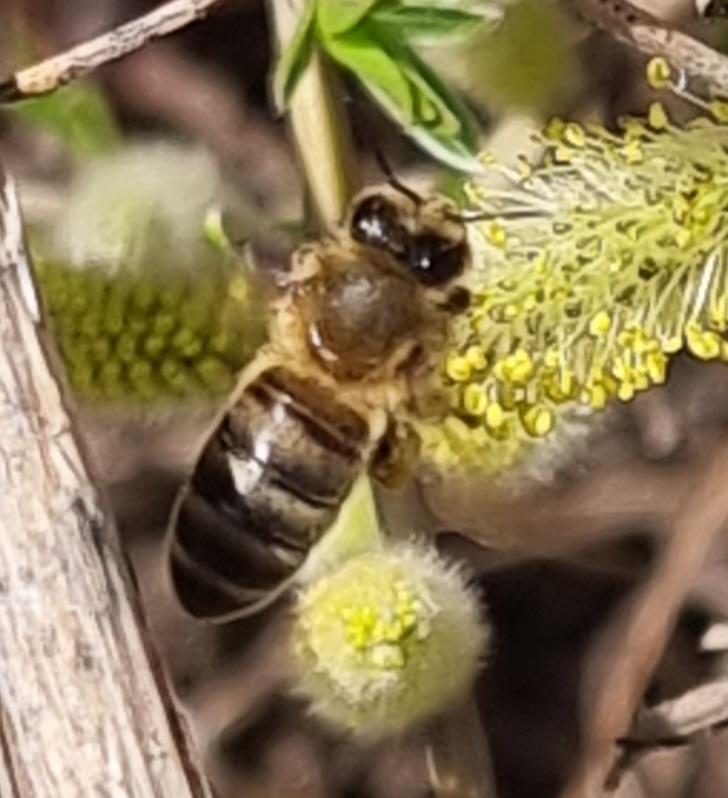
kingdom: Animalia
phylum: Arthropoda
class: Insecta
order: Hymenoptera
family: Apidae
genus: Apis
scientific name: Apis mellifera
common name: Honey bee
